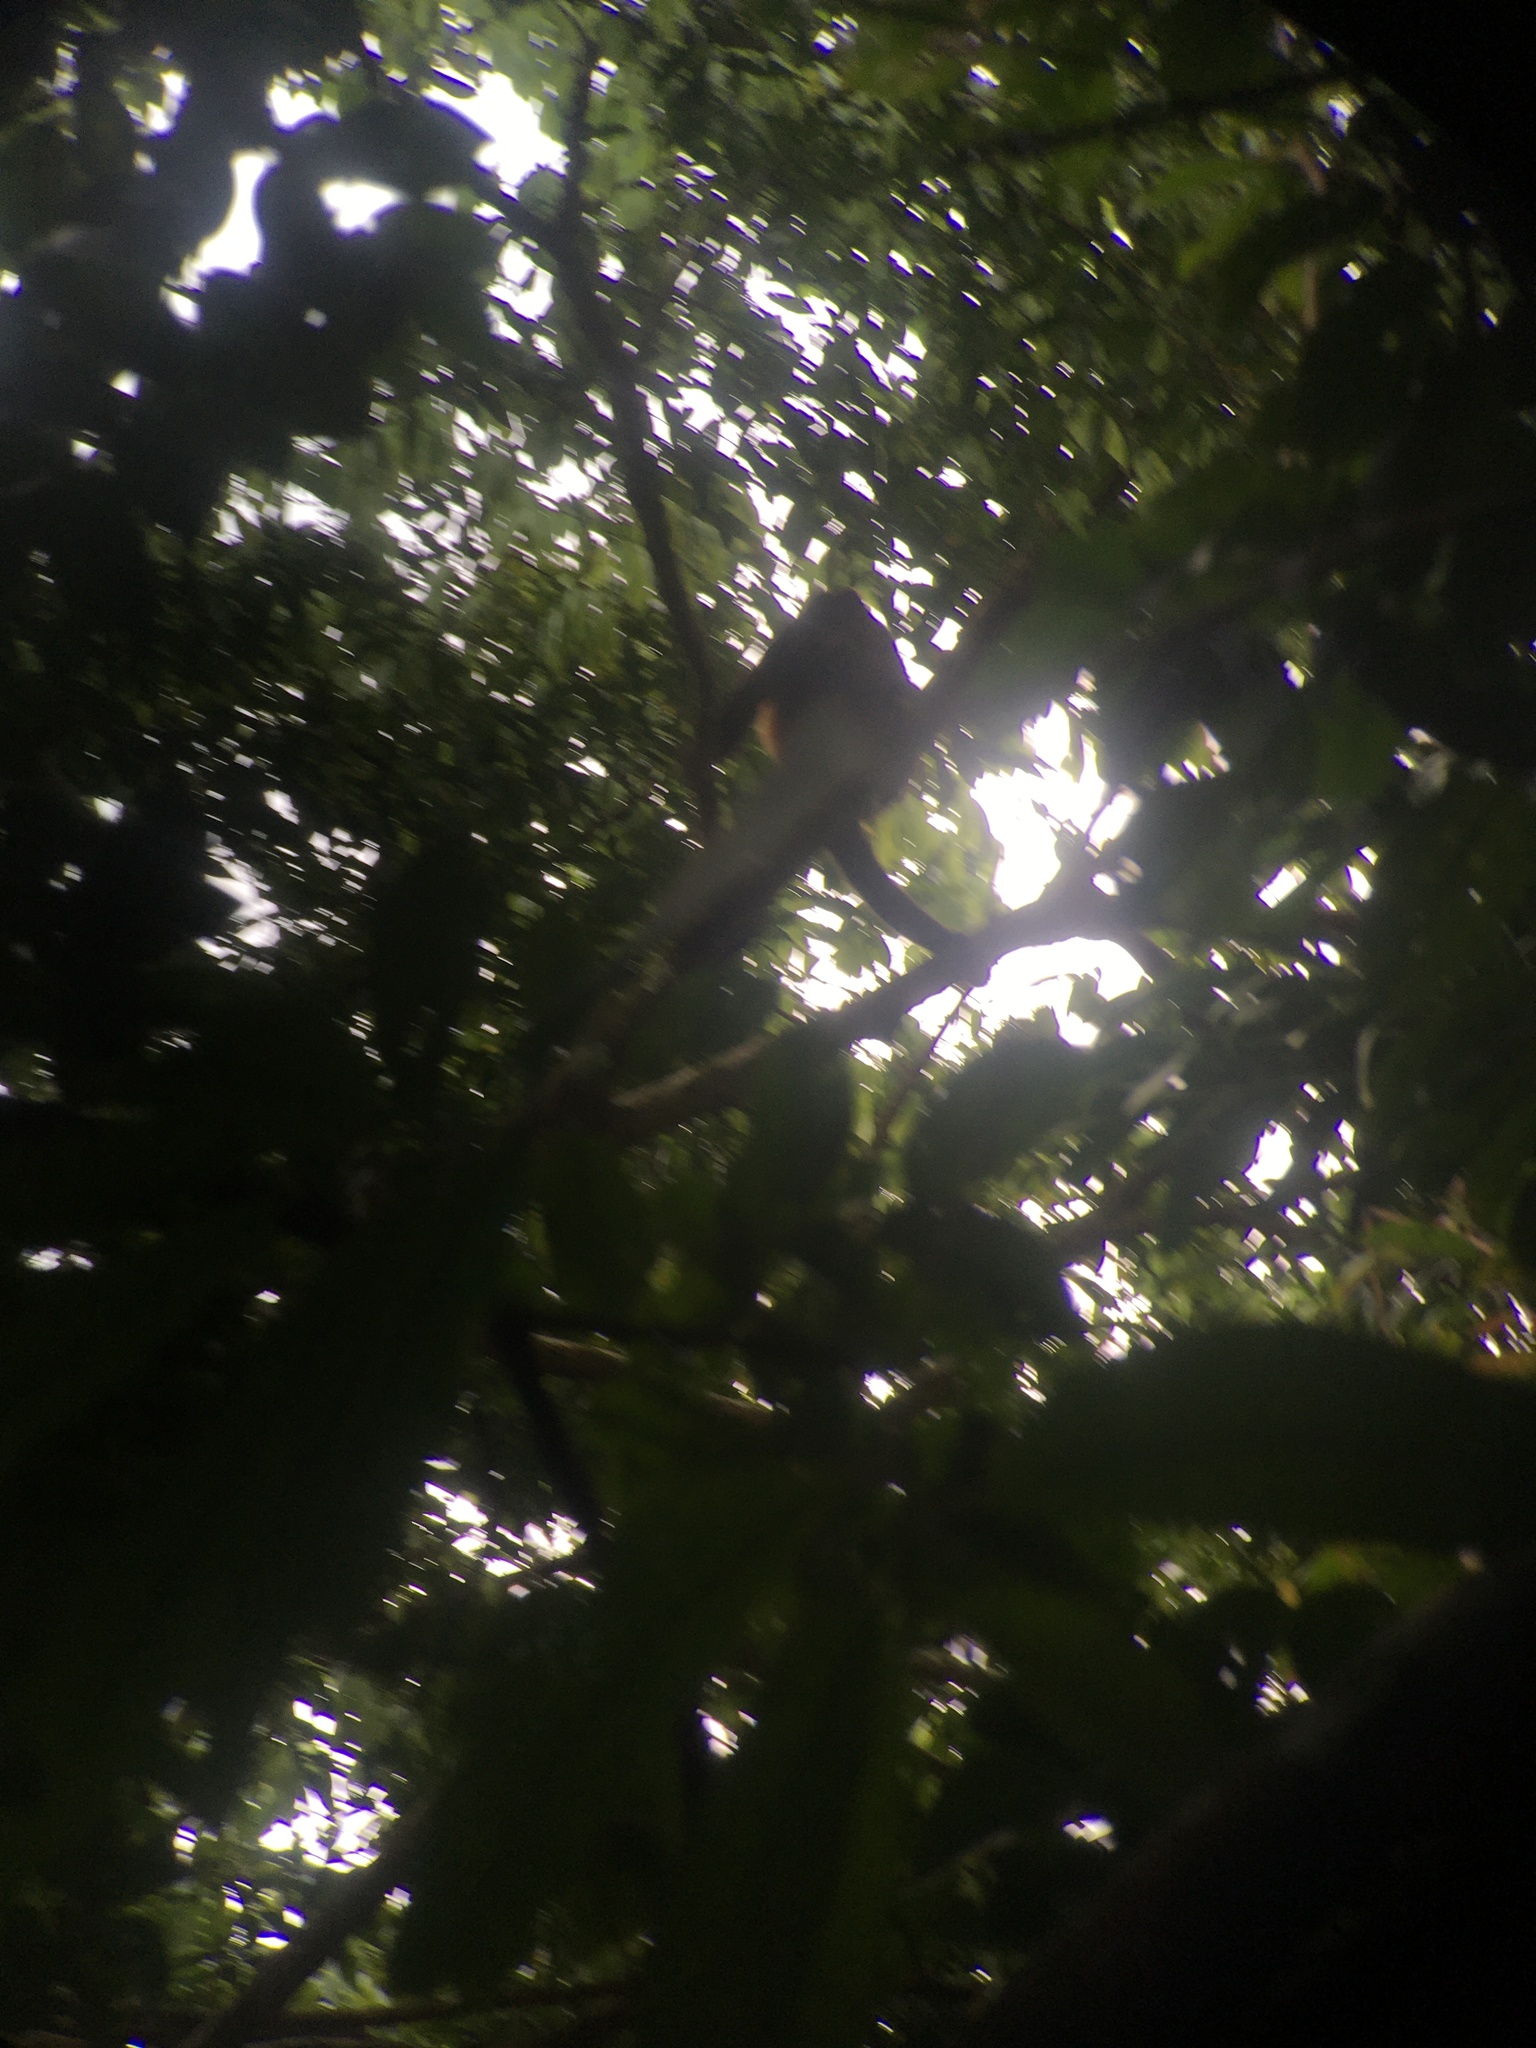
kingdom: Animalia
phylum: Chordata
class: Mammalia
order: Primates
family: Atelidae
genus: Alouatta
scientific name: Alouatta palliata
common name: Mantled howler
